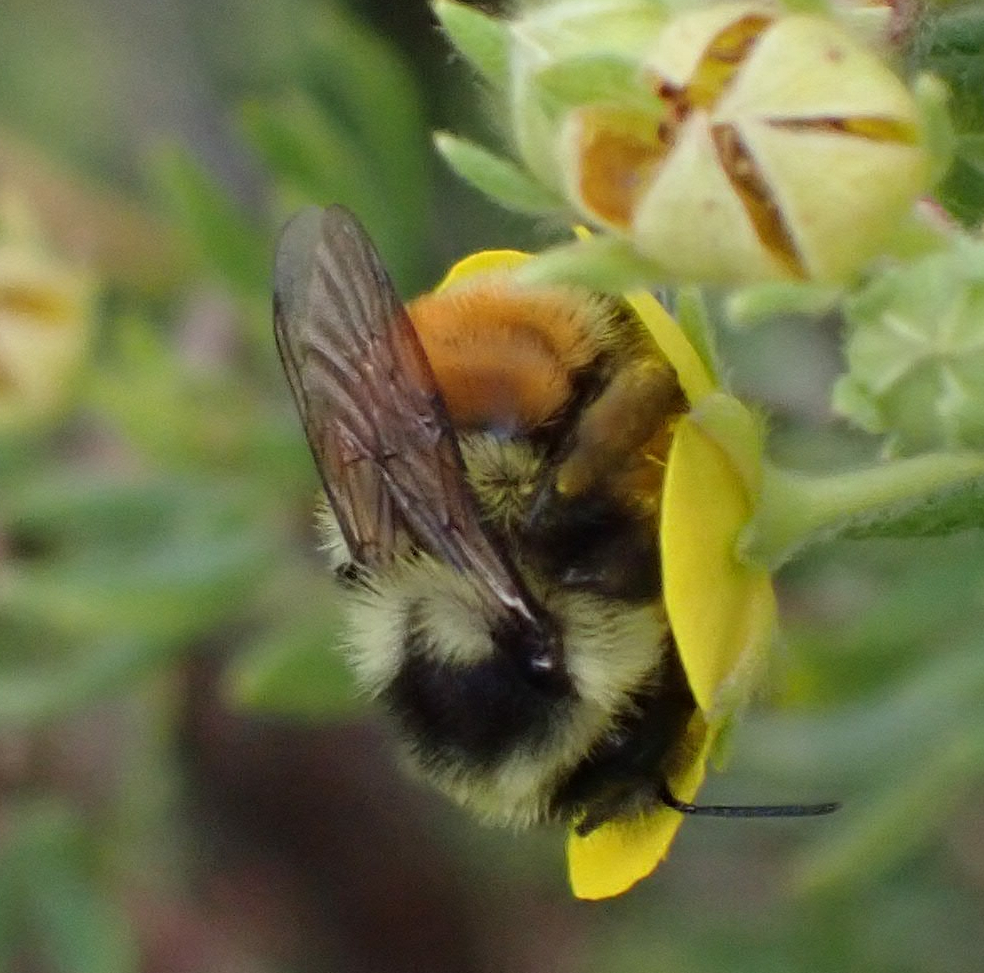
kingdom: Animalia
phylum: Arthropoda
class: Insecta
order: Hymenoptera
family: Apidae
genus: Bombus
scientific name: Bombus ternarius
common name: Tri-colored bumble bee
